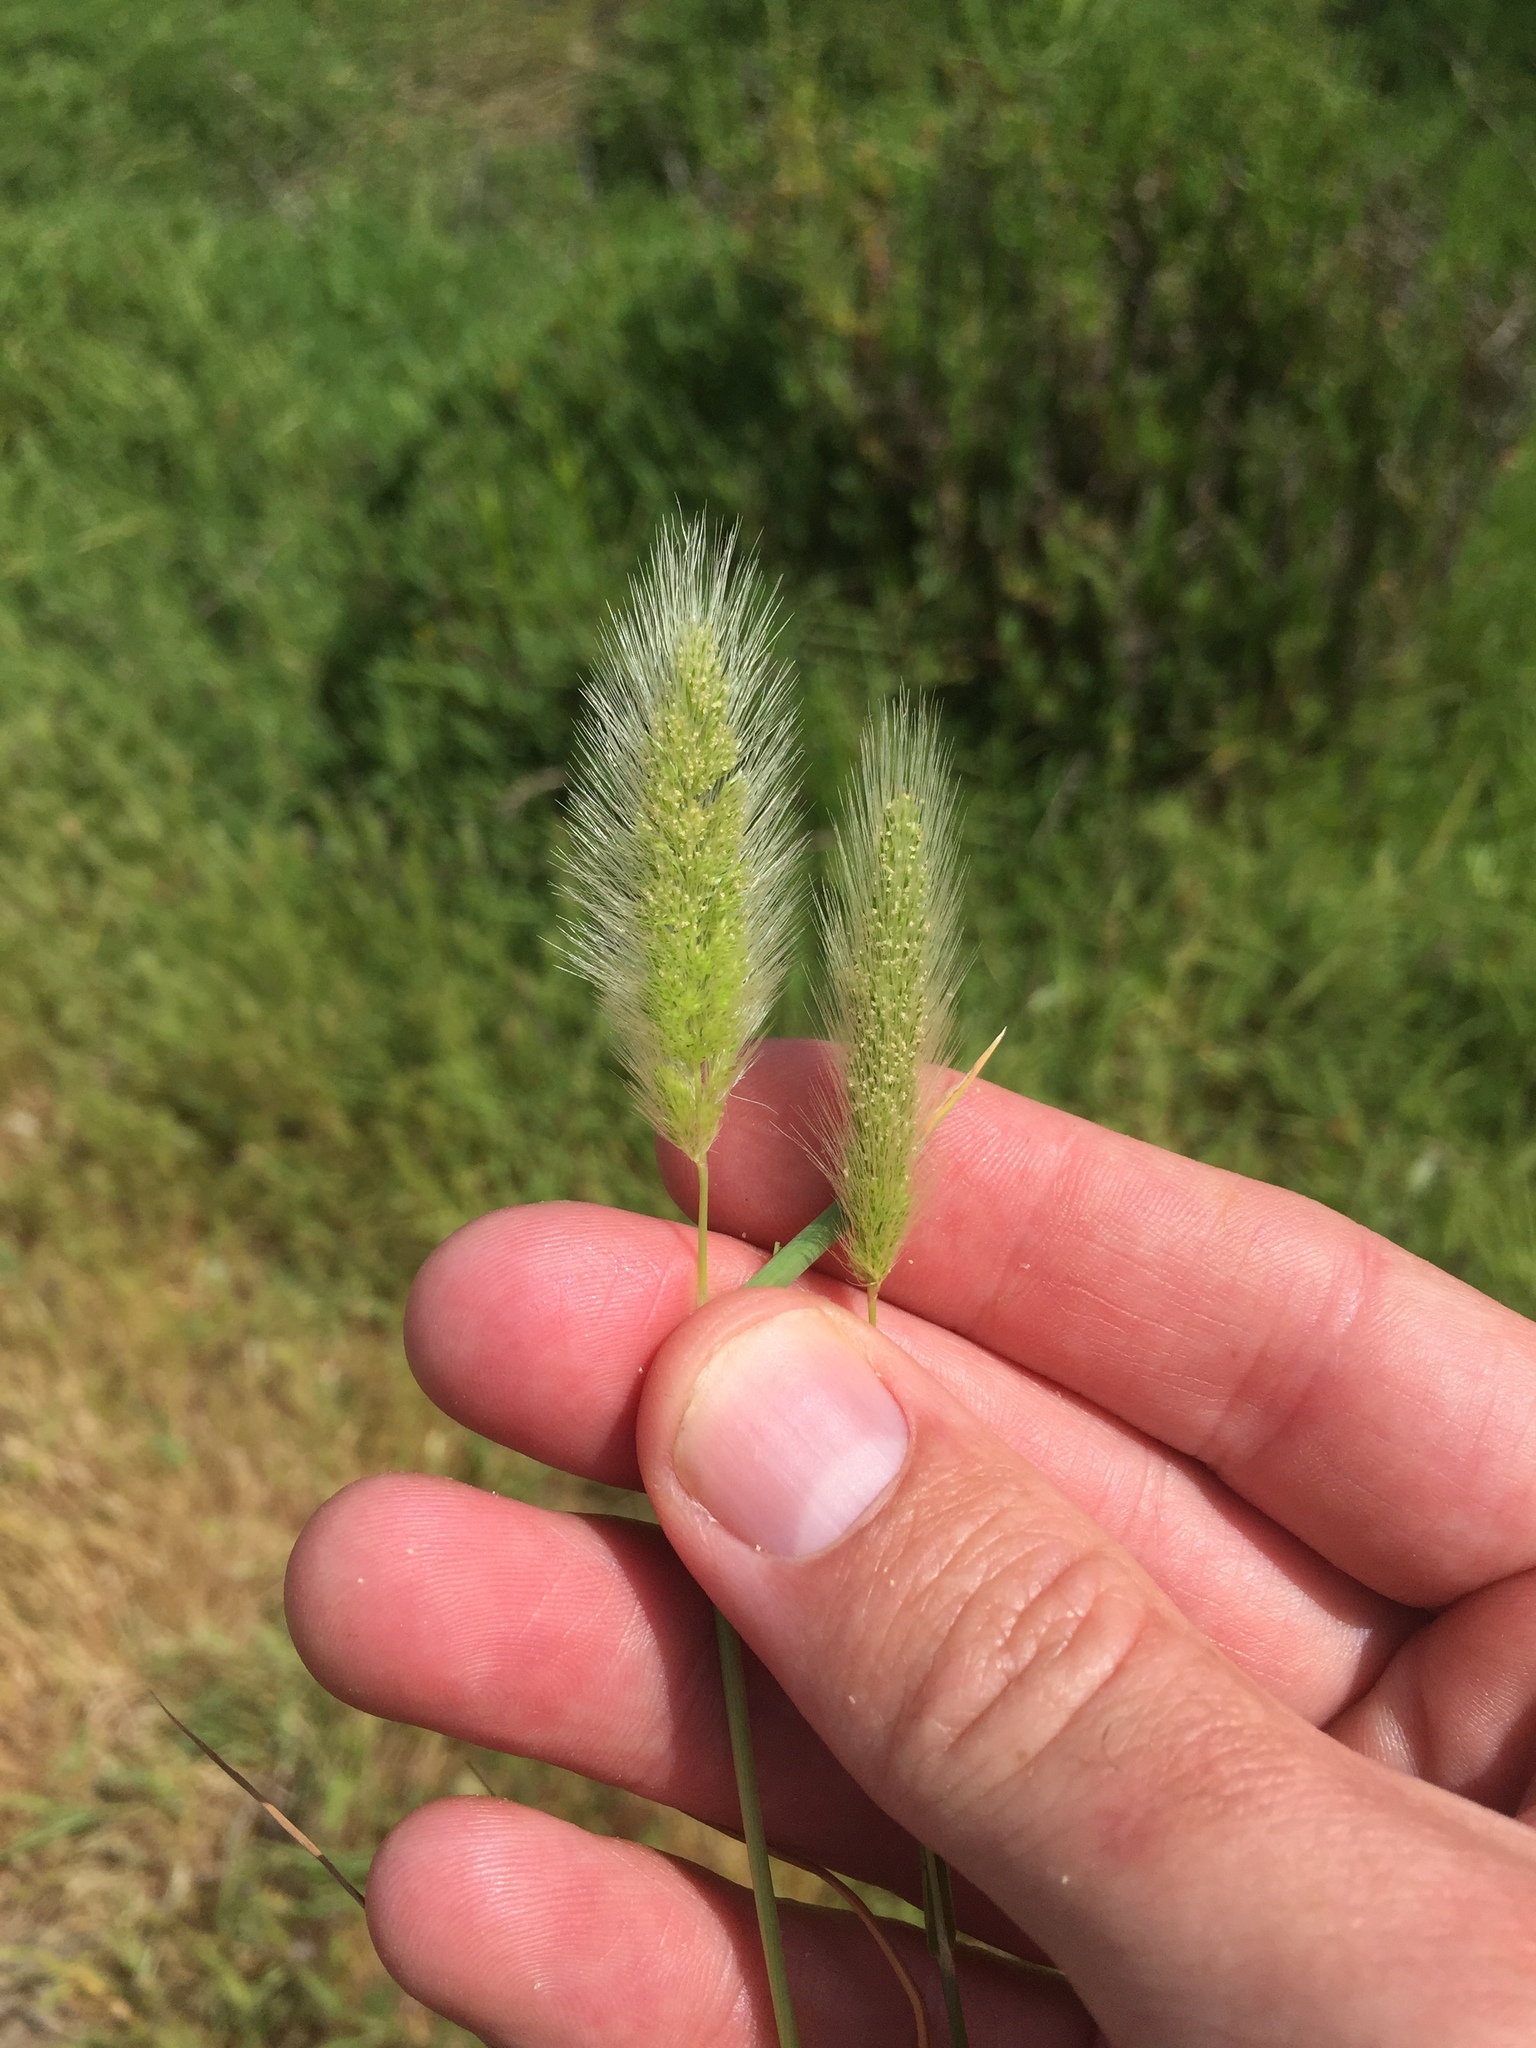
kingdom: Plantae
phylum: Tracheophyta
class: Liliopsida
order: Poales
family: Poaceae
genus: Polypogon
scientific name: Polypogon monspeliensis
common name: Annual rabbitsfoot grass
